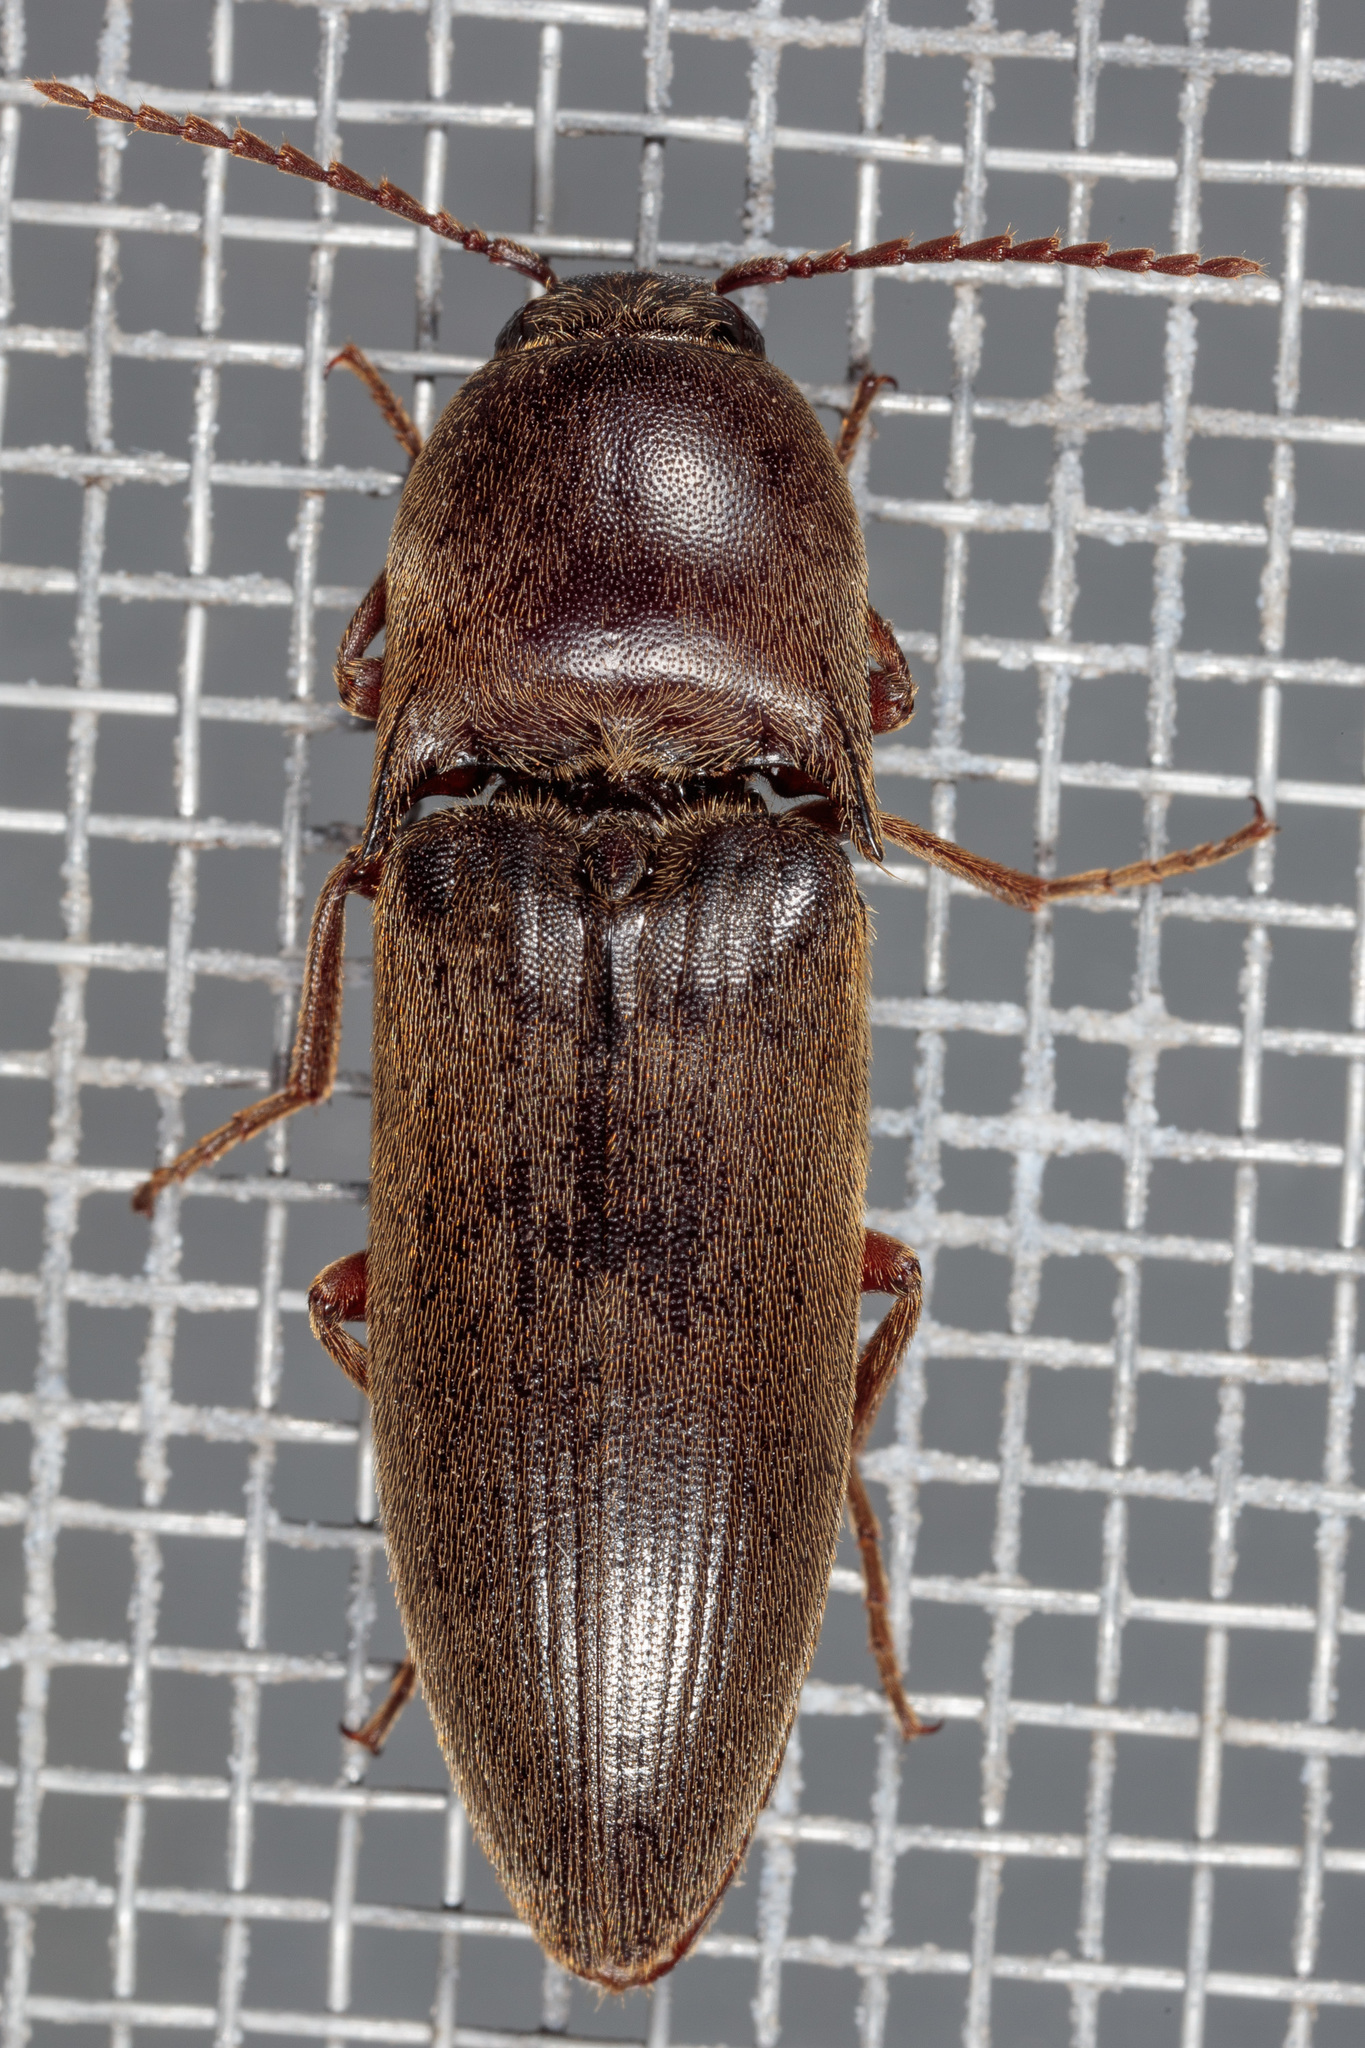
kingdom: Animalia
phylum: Arthropoda
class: Insecta
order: Coleoptera
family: Elateridae
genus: Diplostethus
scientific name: Diplostethus
